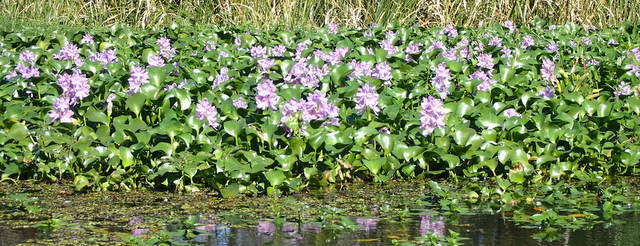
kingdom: Plantae
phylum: Tracheophyta
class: Liliopsida
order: Commelinales
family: Pontederiaceae
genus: Pontederia
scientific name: Pontederia crassipes
